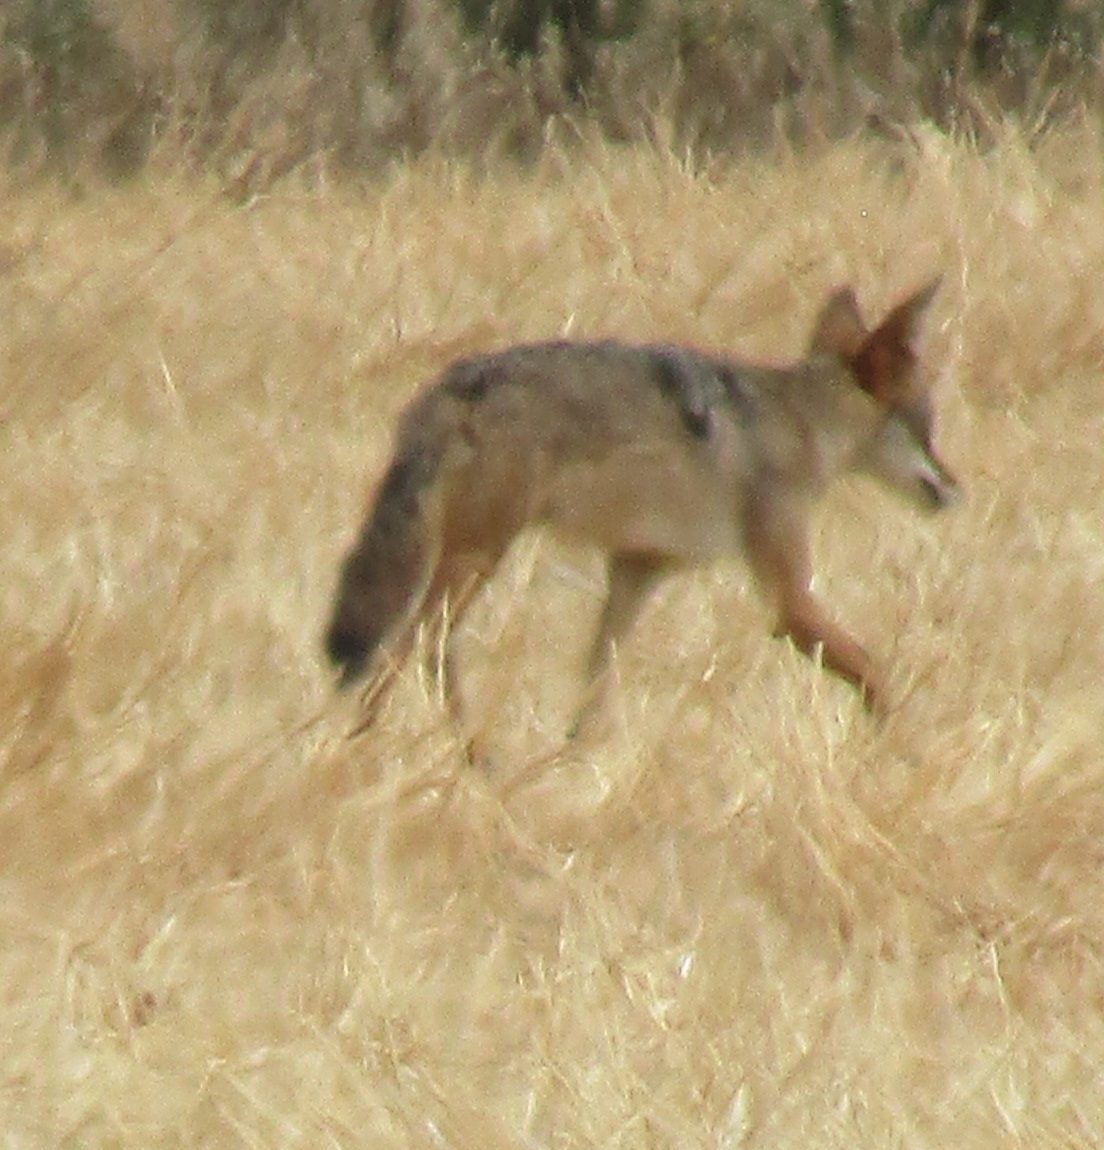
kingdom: Animalia
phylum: Chordata
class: Mammalia
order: Carnivora
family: Canidae
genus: Canis
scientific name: Canis latrans
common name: Coyote
